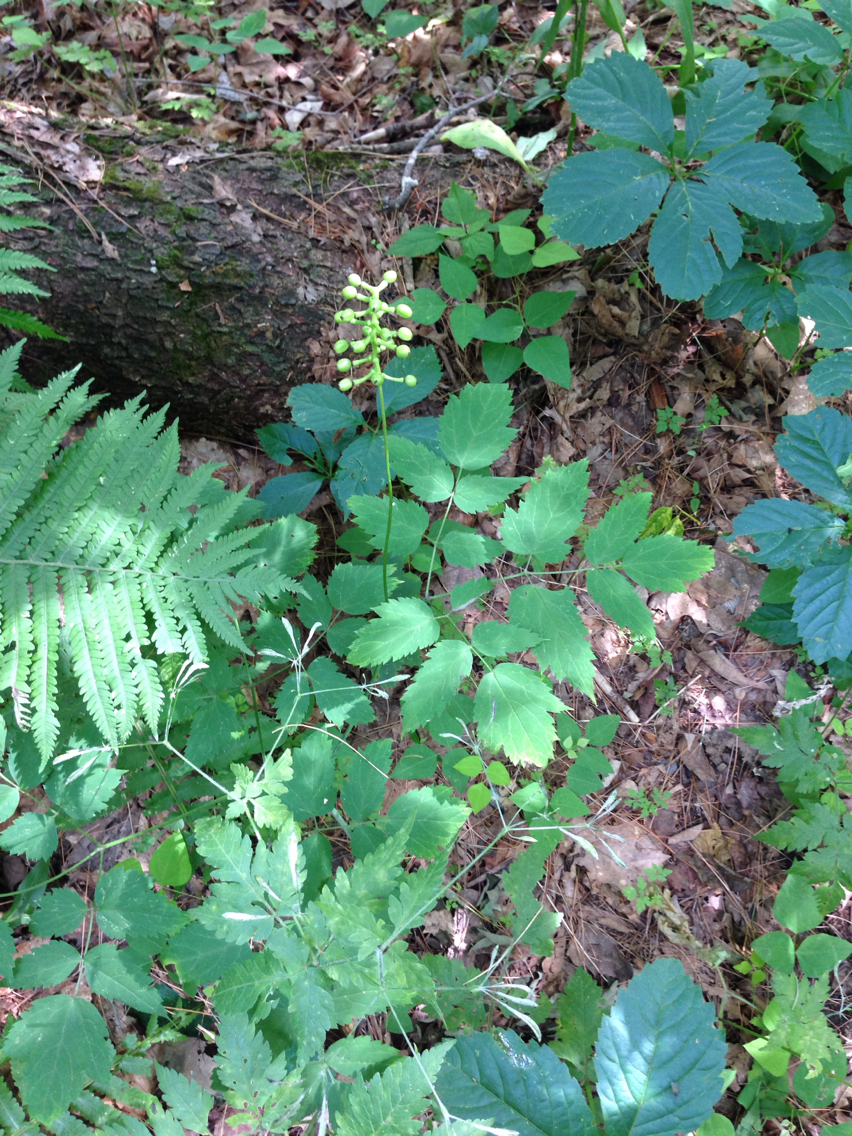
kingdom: Plantae
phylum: Tracheophyta
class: Magnoliopsida
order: Ranunculales
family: Ranunculaceae
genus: Actaea
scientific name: Actaea pachypoda
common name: Doll's-eyes
